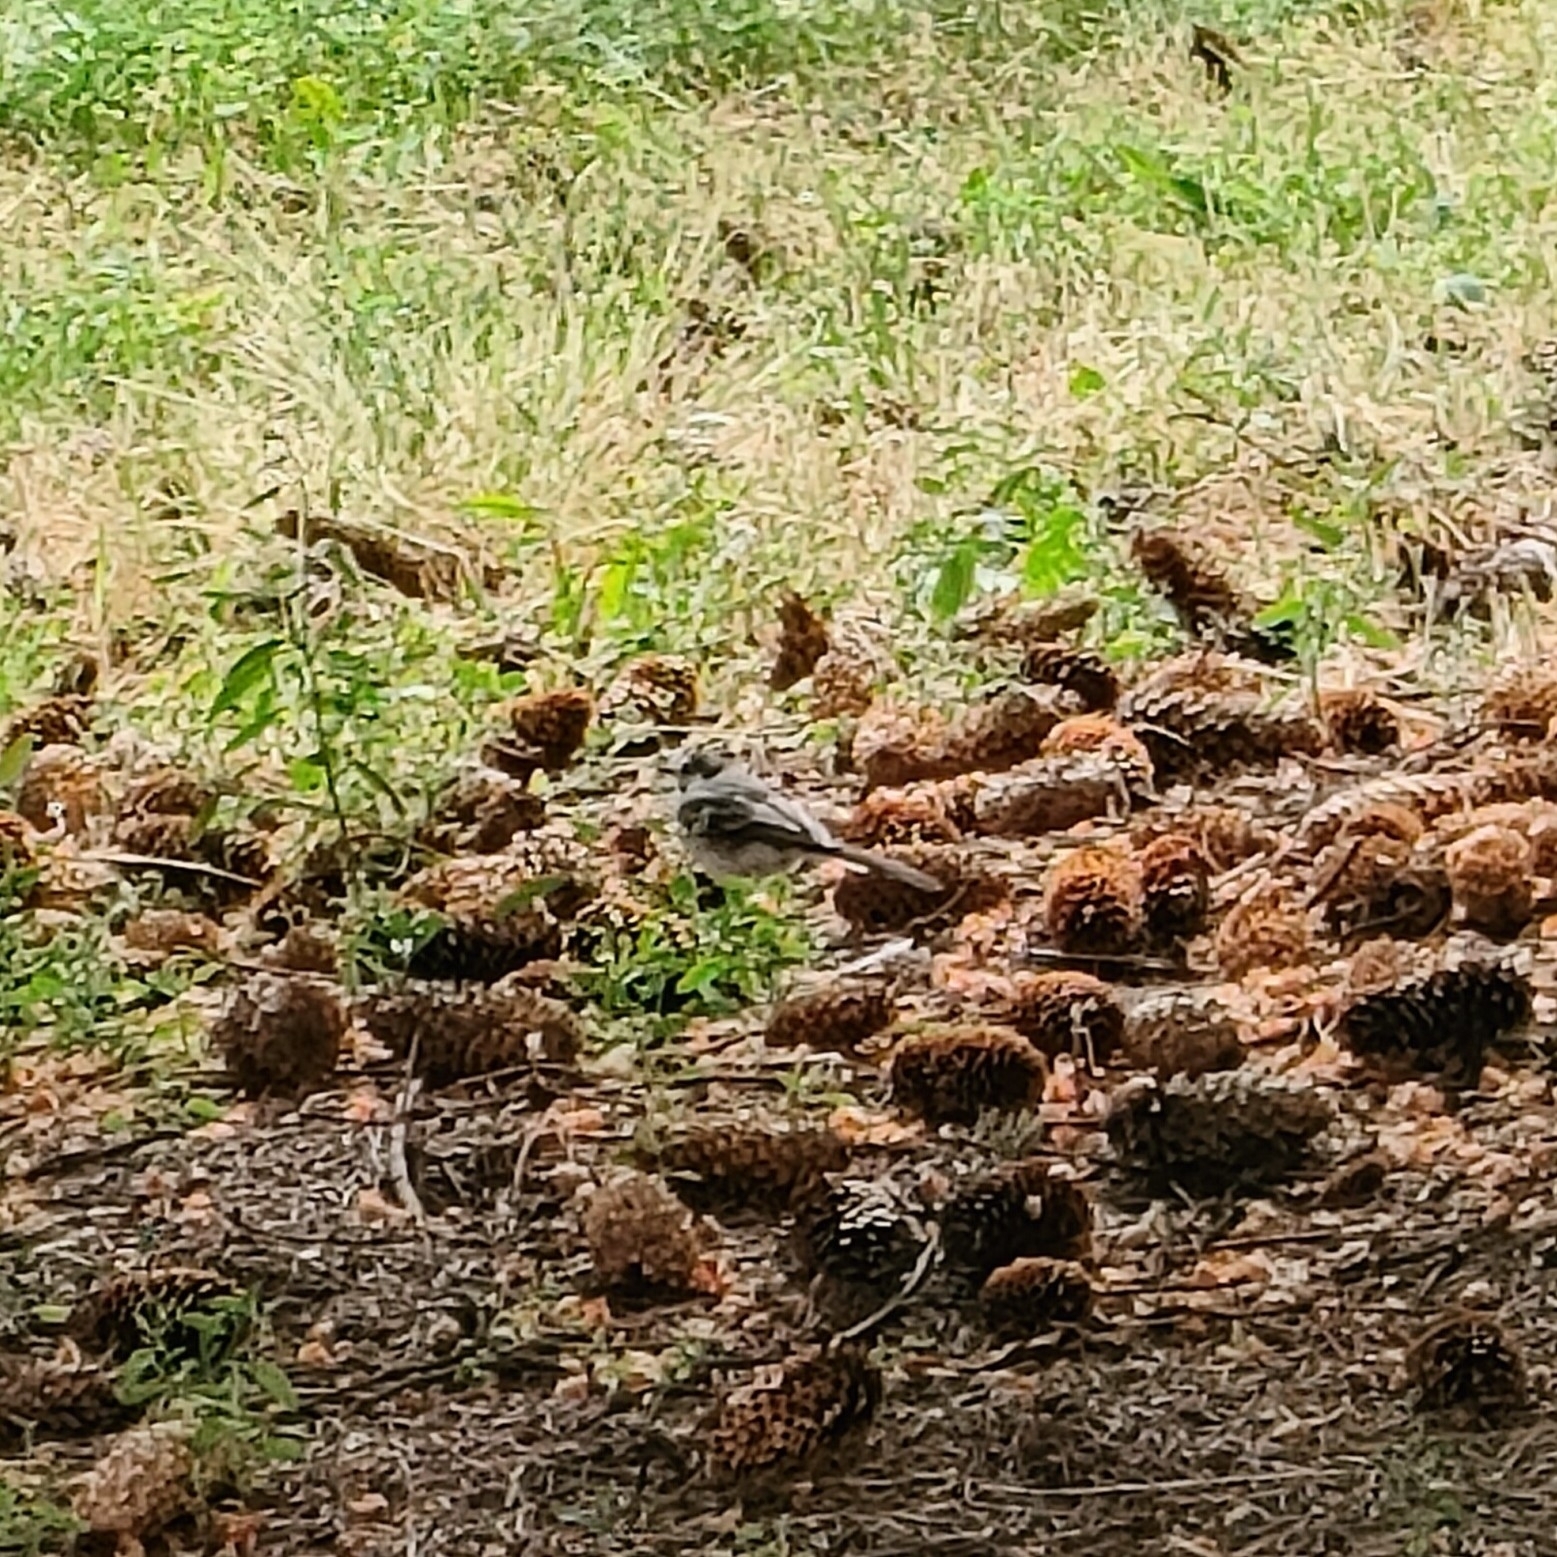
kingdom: Animalia
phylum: Chordata
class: Aves
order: Passeriformes
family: Motacillidae
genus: Motacilla
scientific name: Motacilla alba
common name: White wagtail
